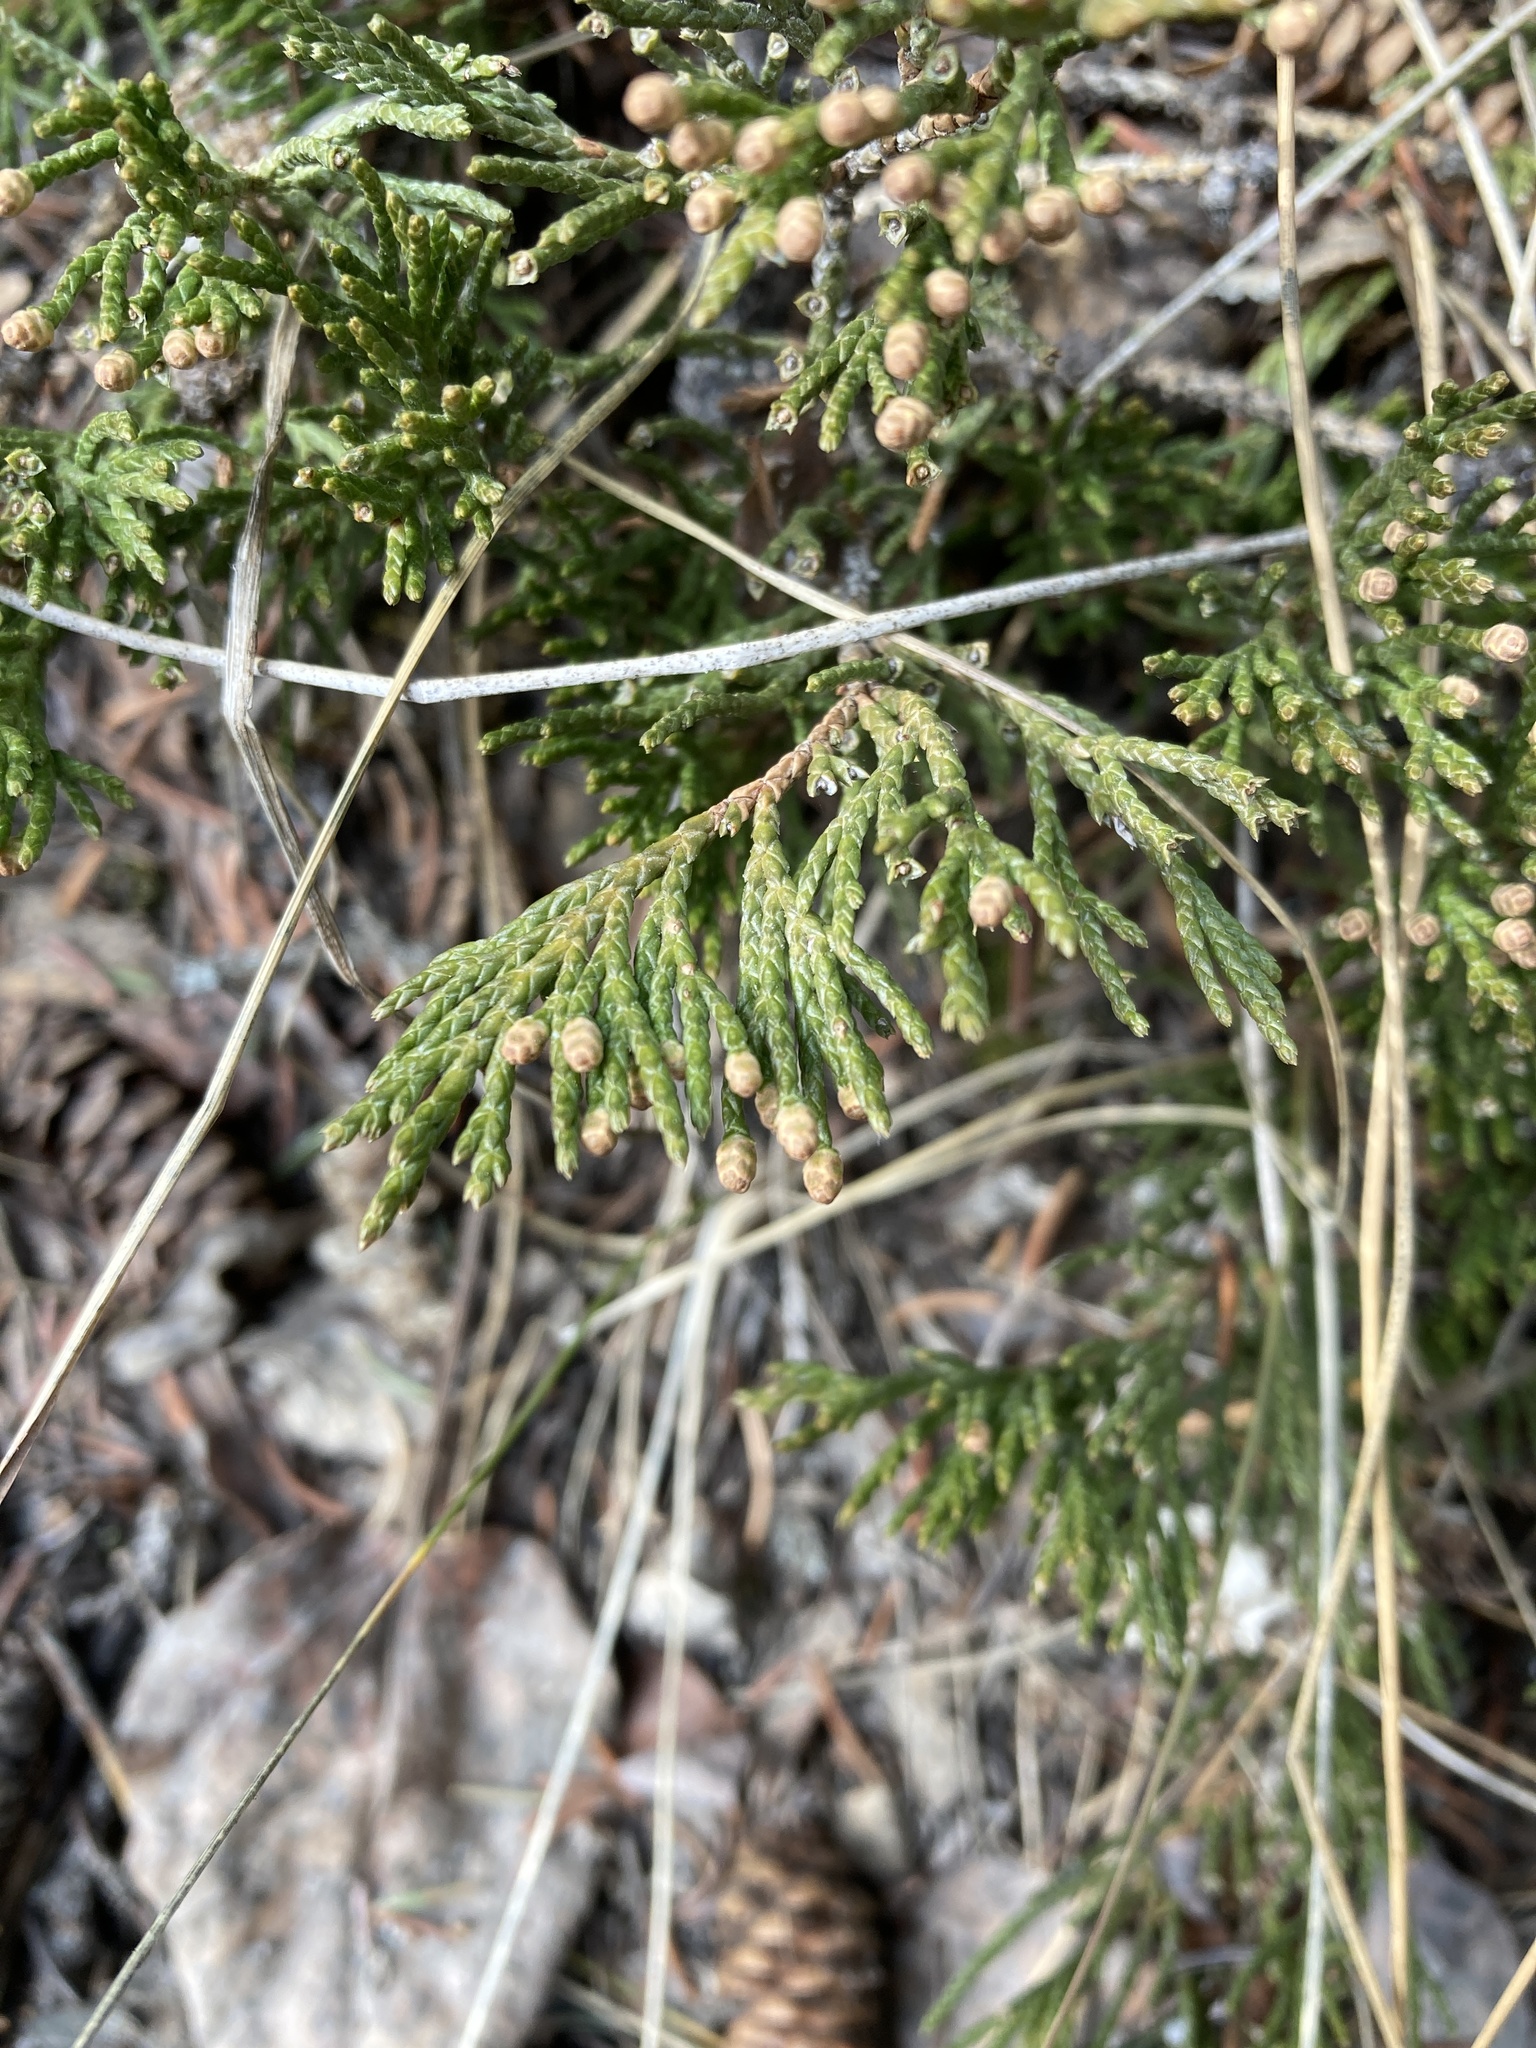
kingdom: Plantae
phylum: Tracheophyta
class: Pinopsida
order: Pinales
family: Cupressaceae
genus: Juniperus
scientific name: Juniperus horizontalis
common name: Creeping juniper
